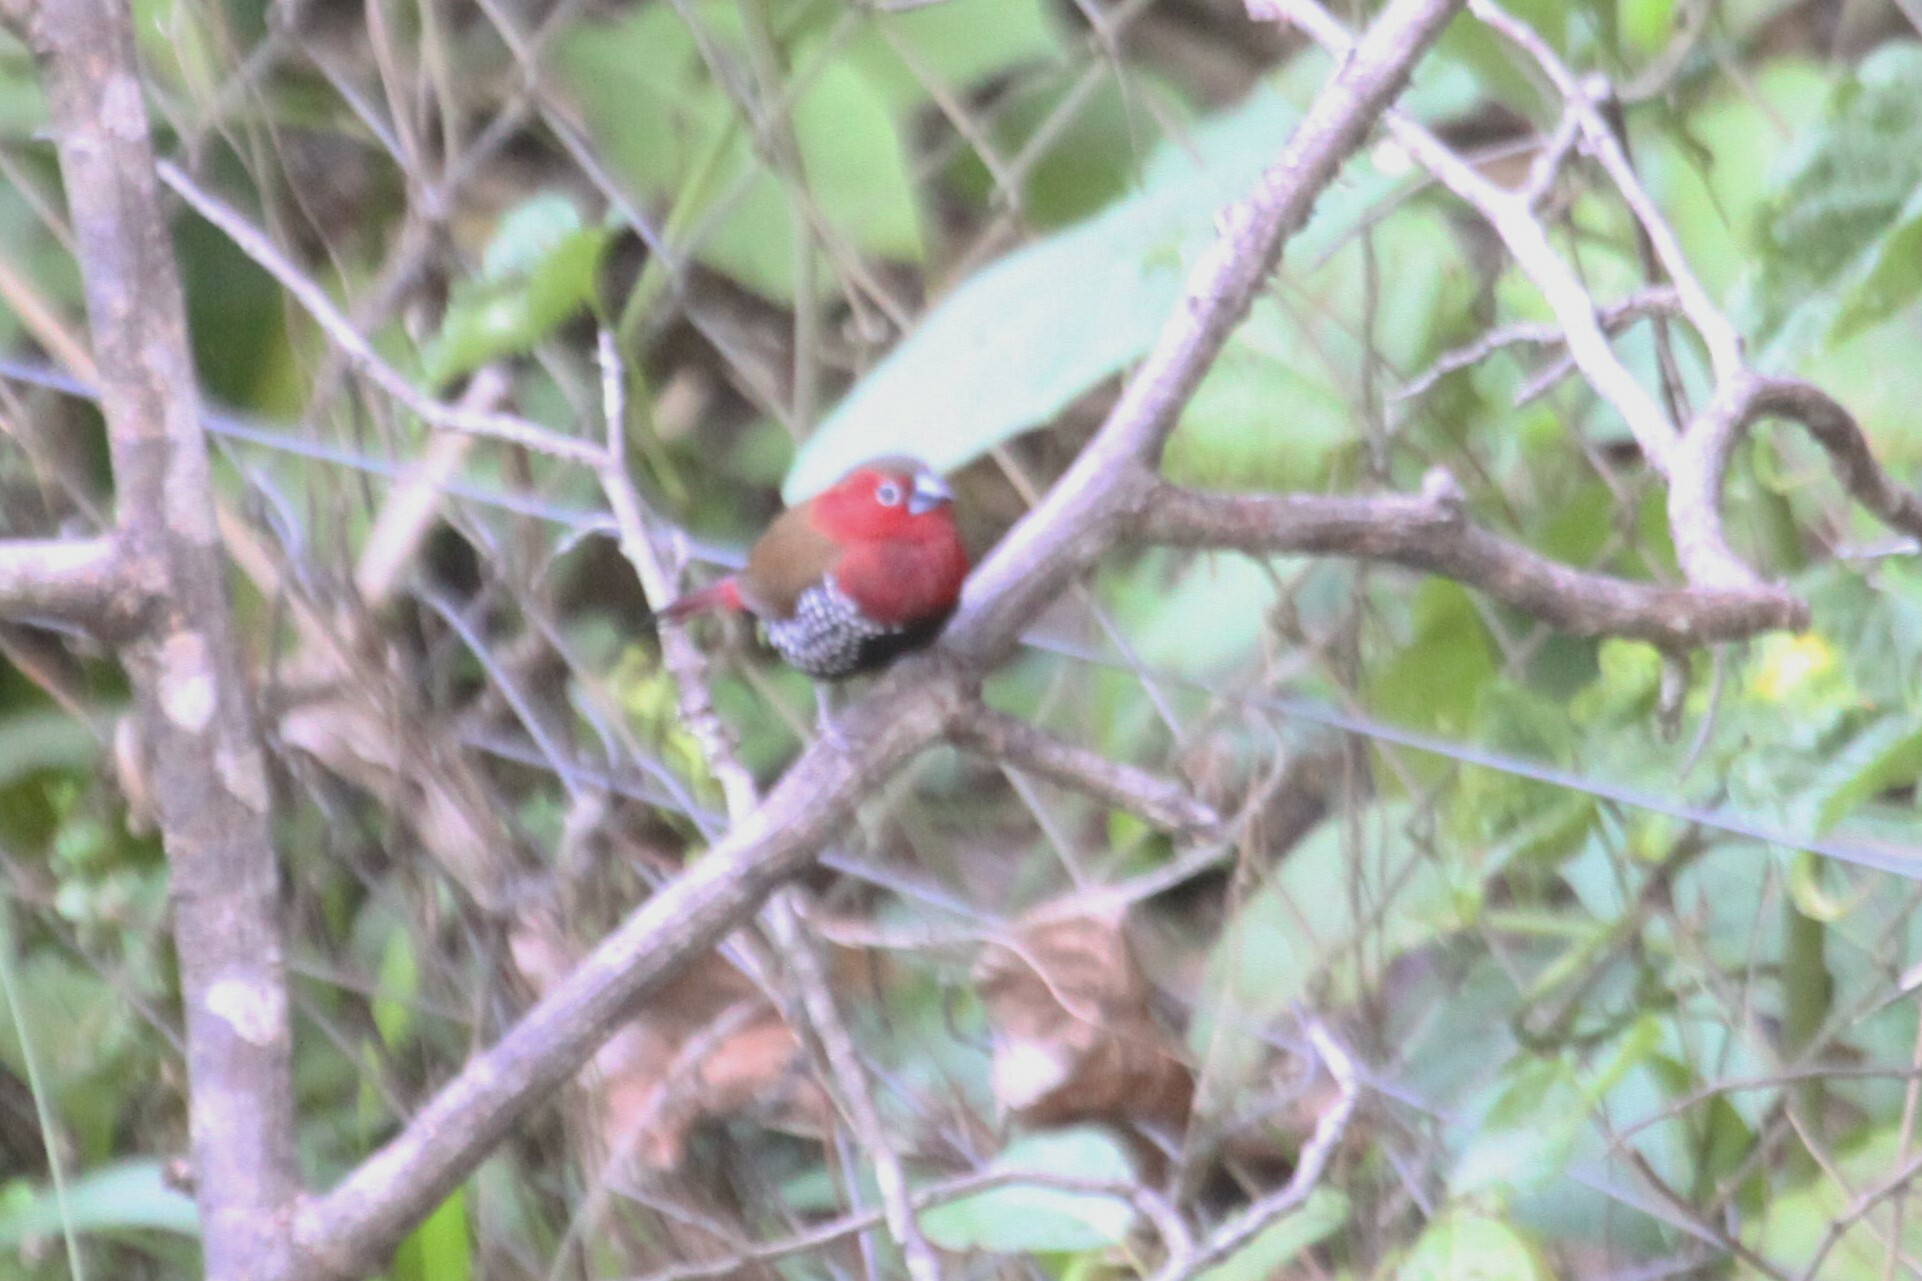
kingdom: Animalia
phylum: Chordata
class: Aves
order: Passeriformes
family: Estrildidae
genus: Hypargos
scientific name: Hypargos niveoguttatus
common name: Red-throated twinspot
